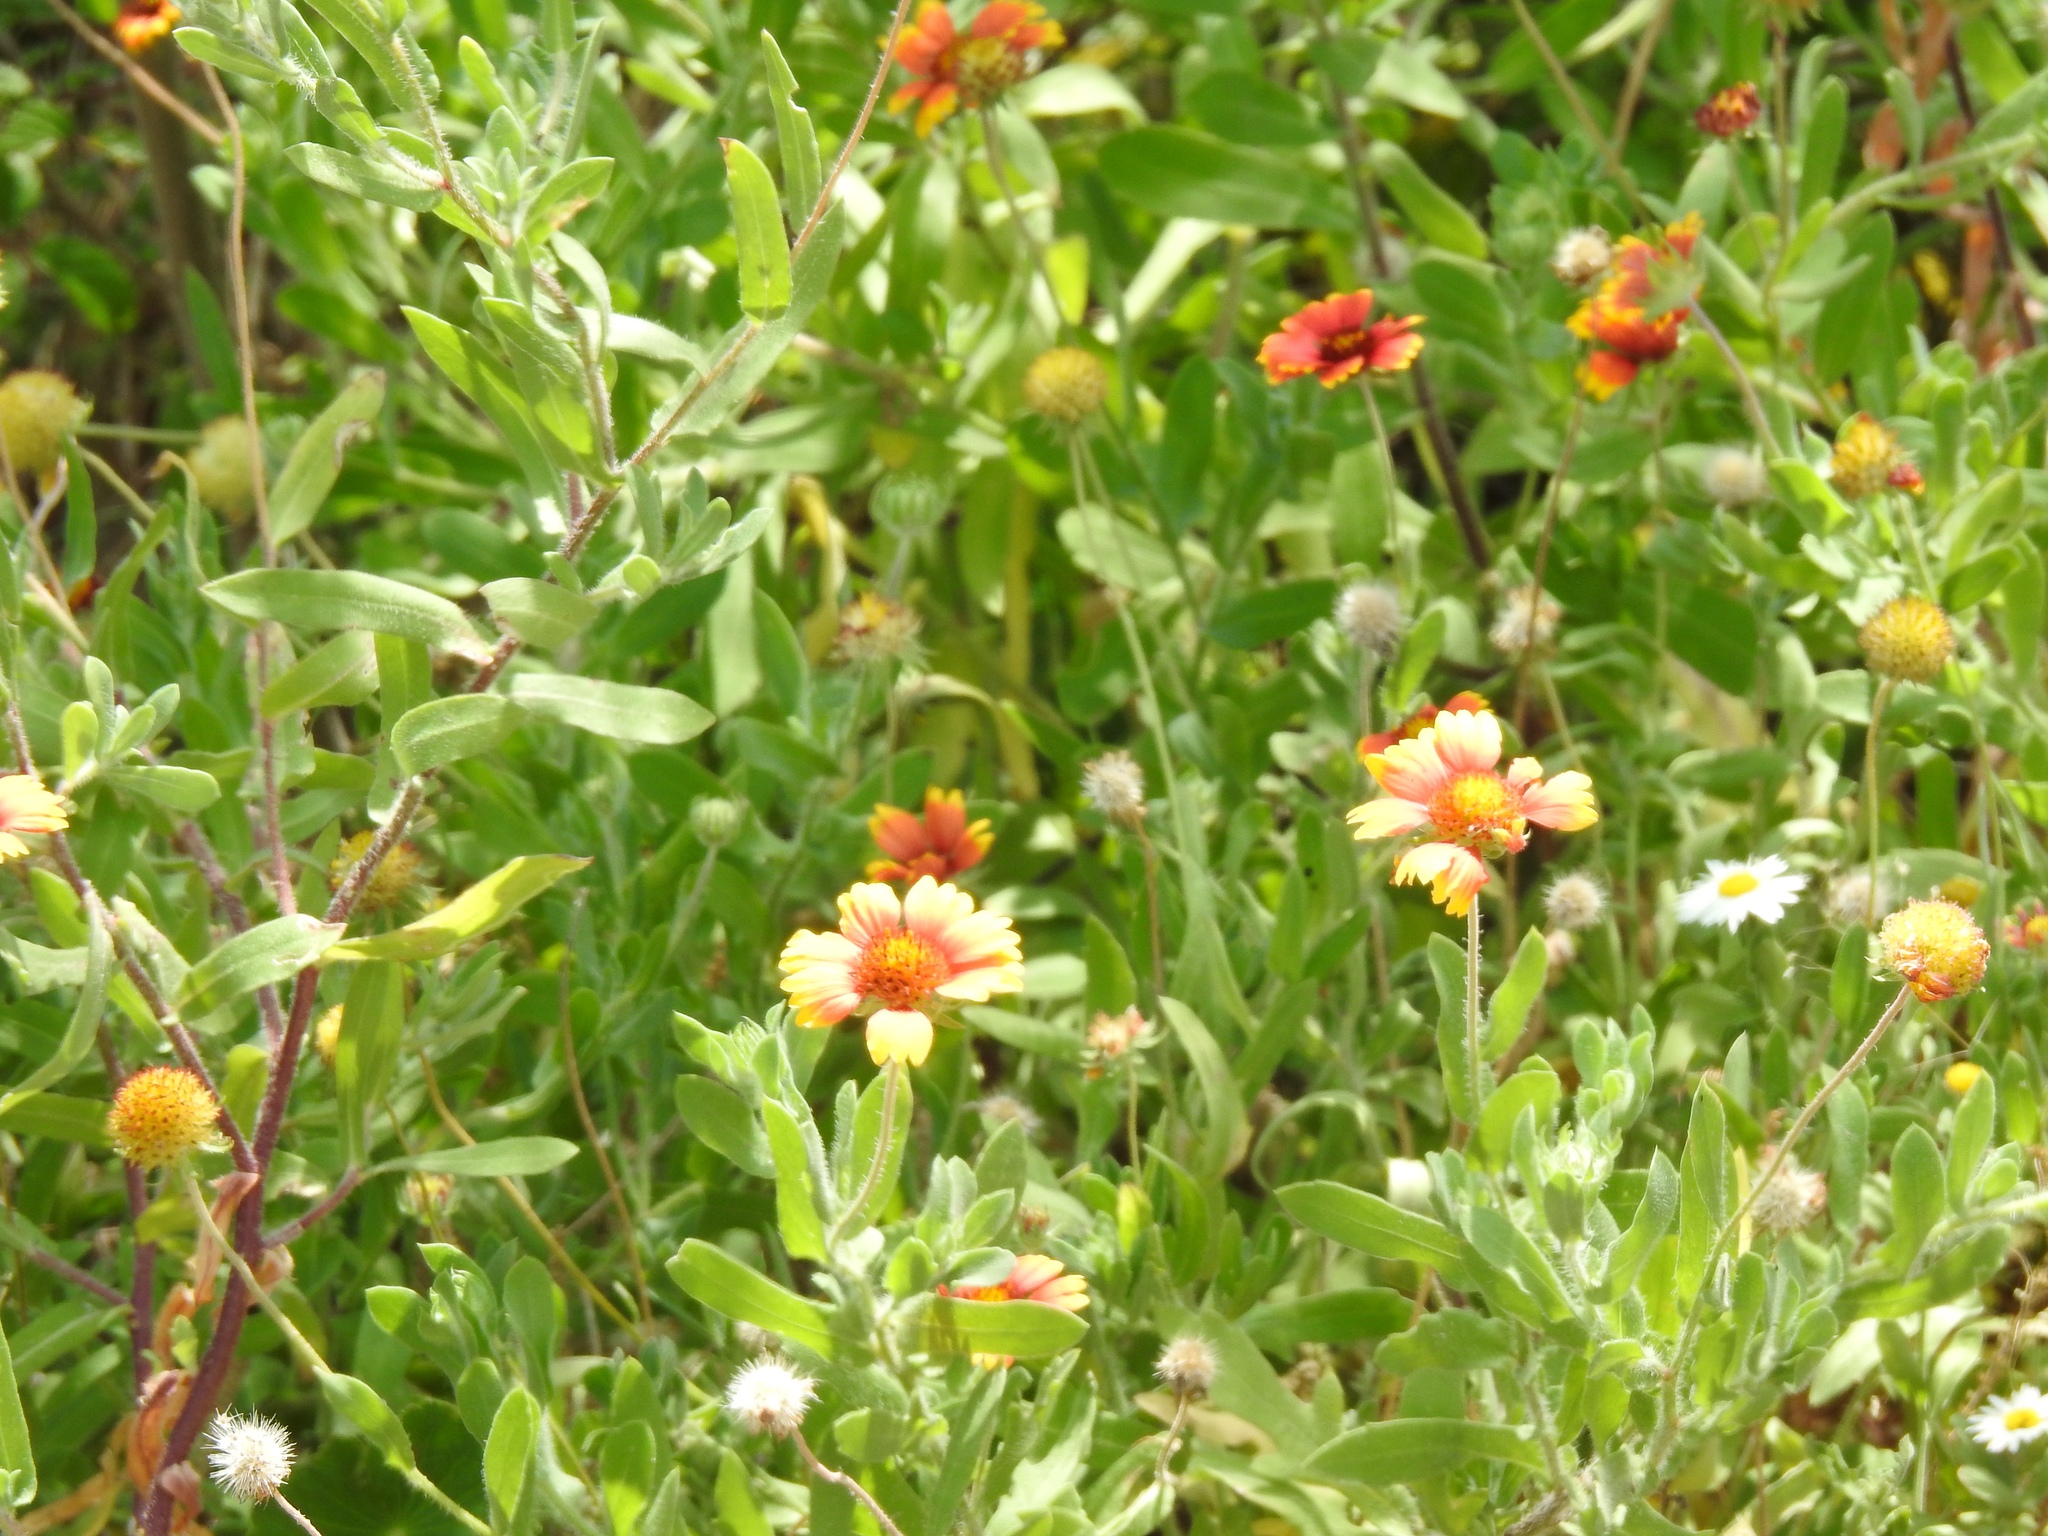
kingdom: Plantae
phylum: Tracheophyta
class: Magnoliopsida
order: Asterales
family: Asteraceae
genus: Gaillardia
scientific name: Gaillardia pulchella
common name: Firewheel
